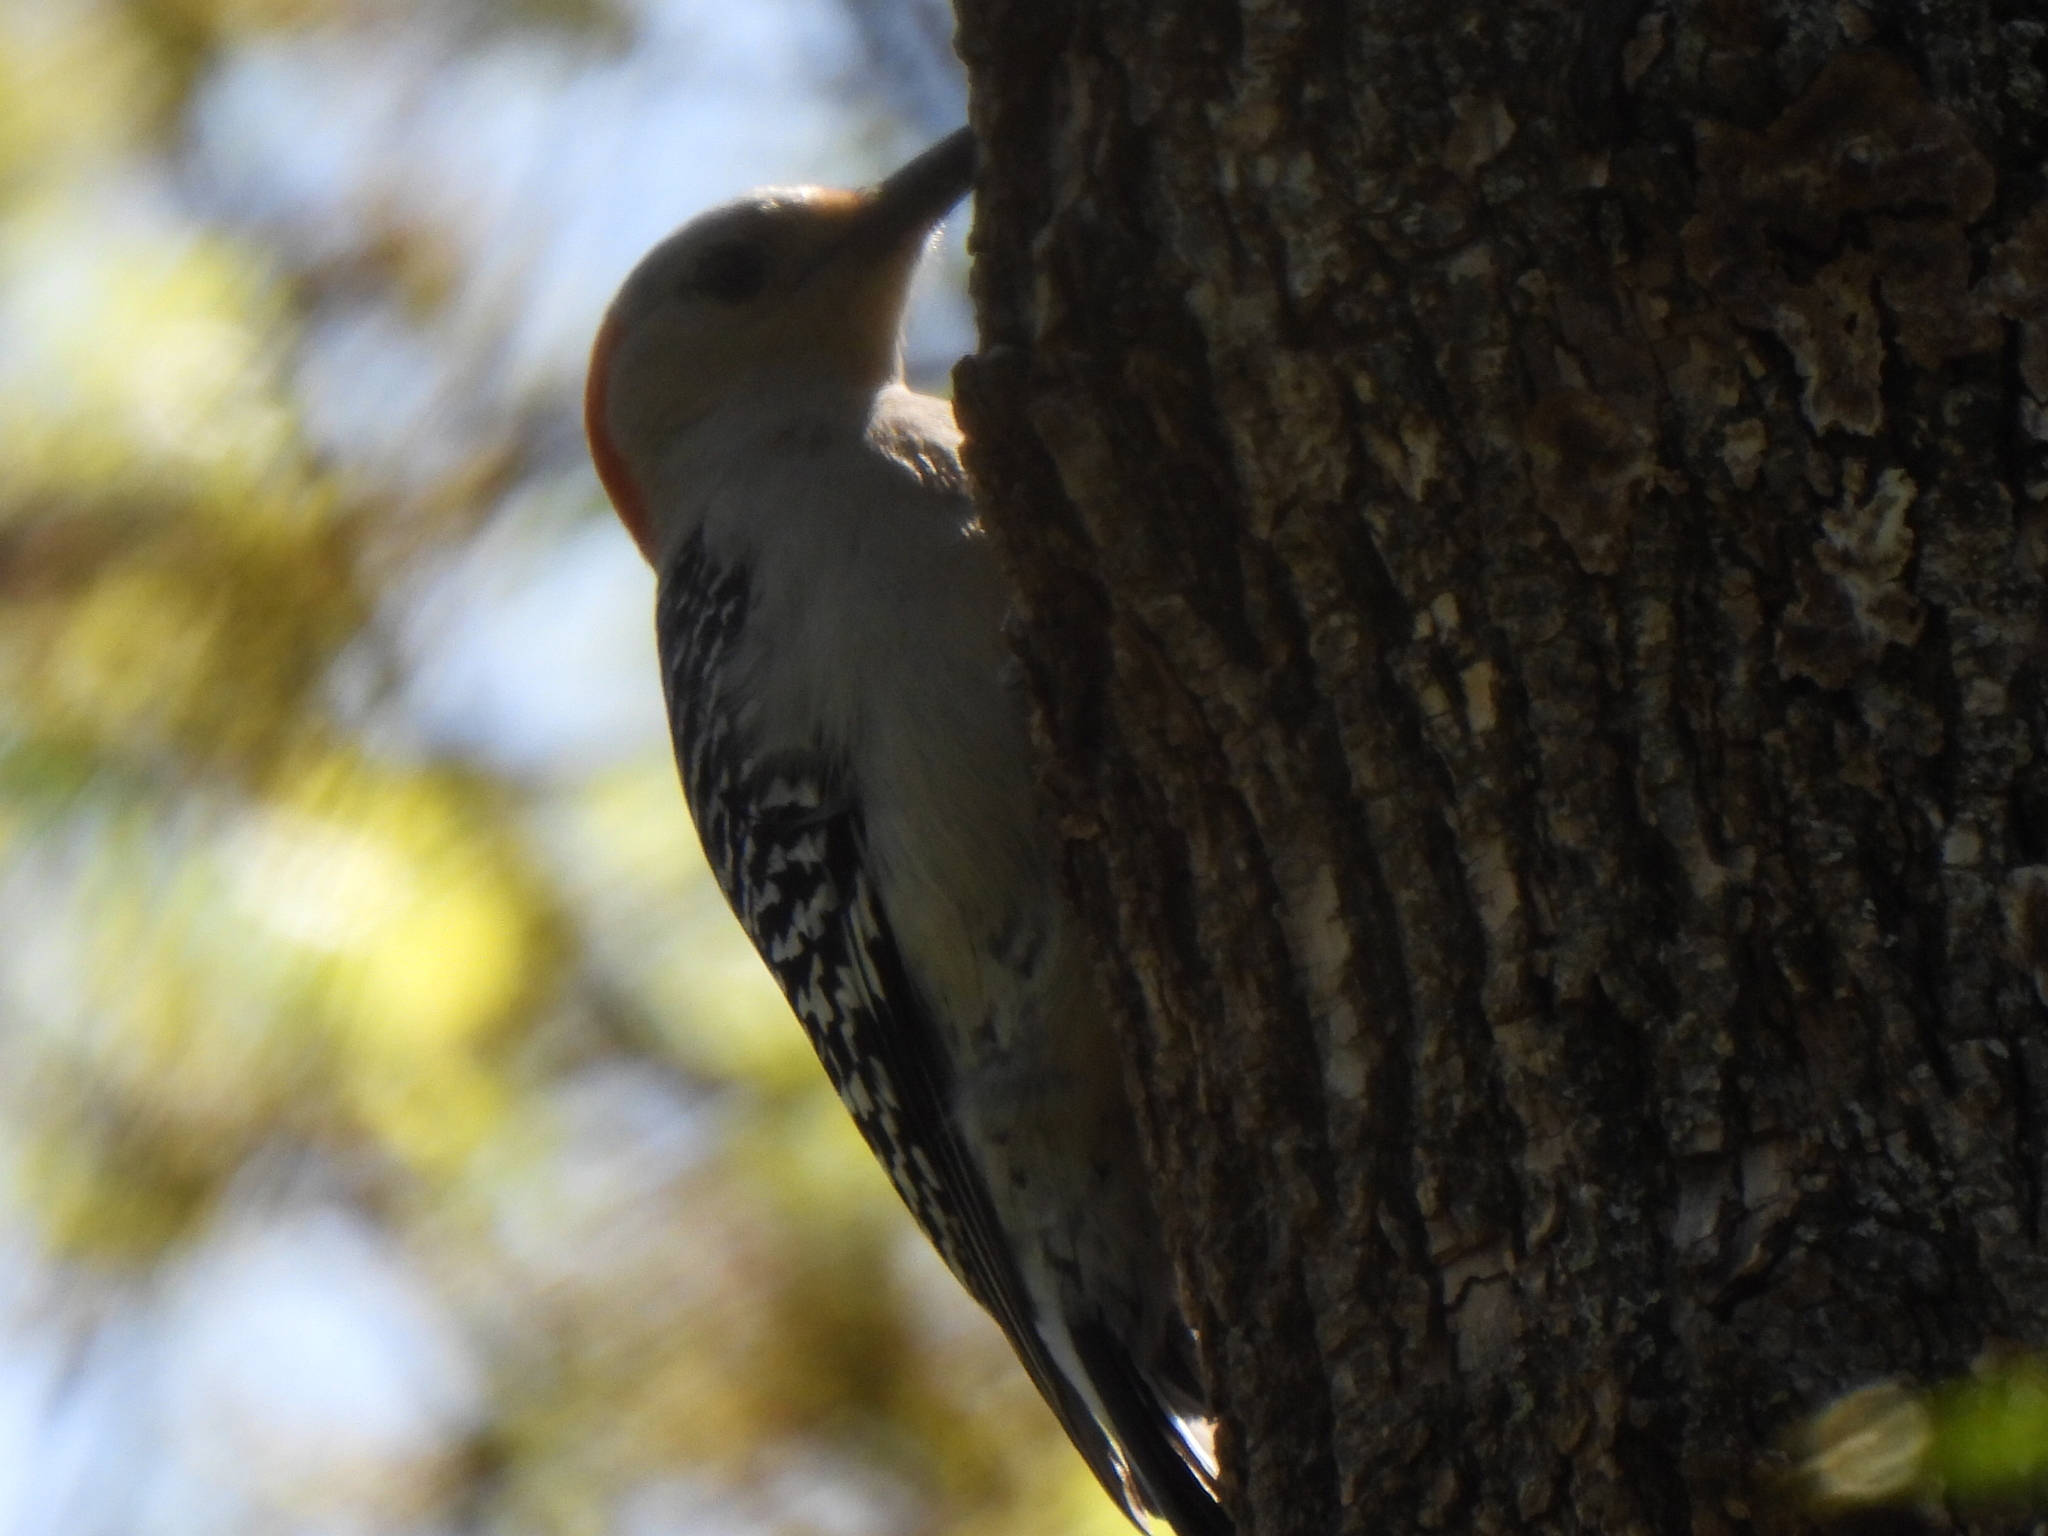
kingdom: Animalia
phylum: Chordata
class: Aves
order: Piciformes
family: Picidae
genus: Melanerpes
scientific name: Melanerpes carolinus
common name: Red-bellied woodpecker
